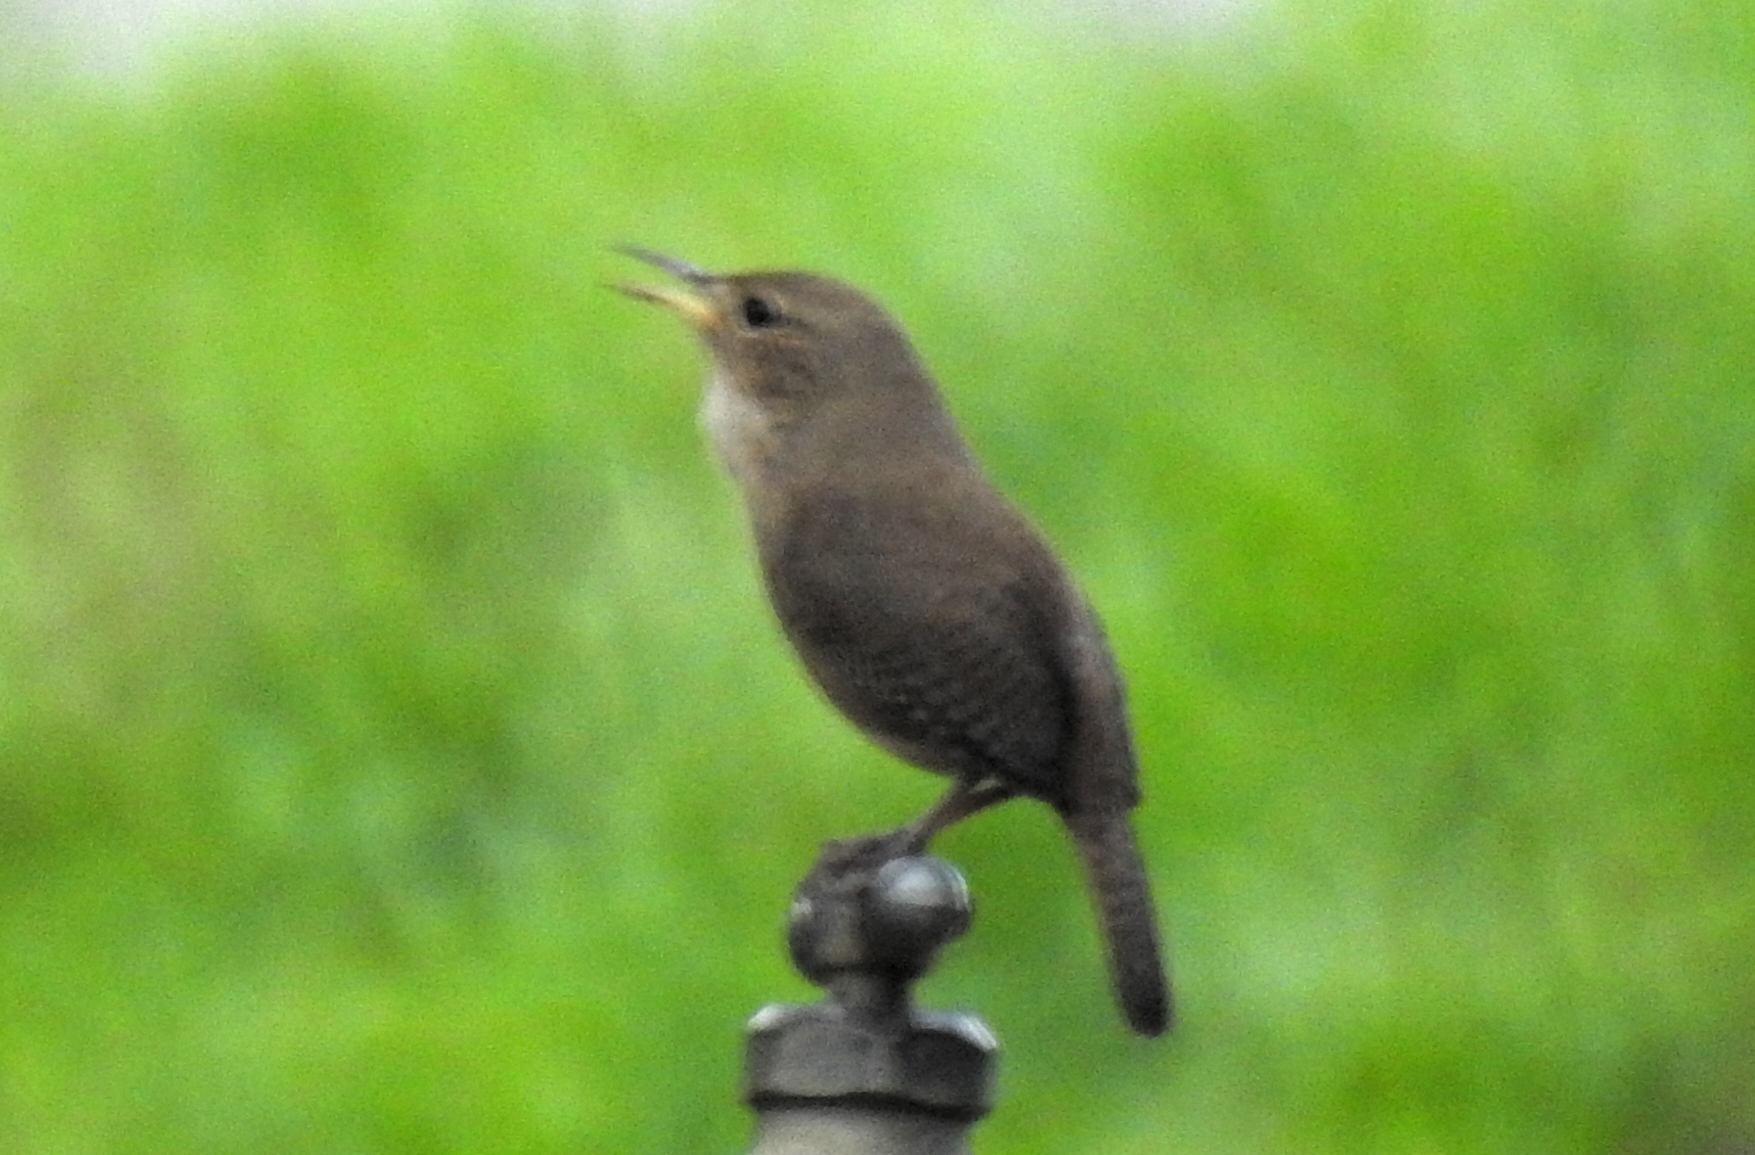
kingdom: Animalia
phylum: Chordata
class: Aves
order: Passeriformes
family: Troglodytidae
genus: Troglodytes
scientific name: Troglodytes aedon
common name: House wren
